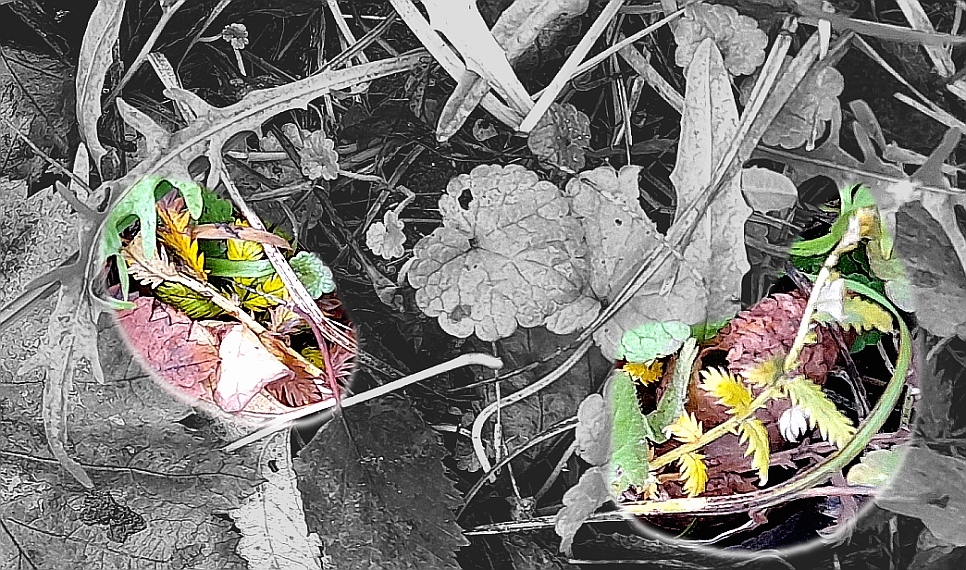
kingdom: Plantae
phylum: Tracheophyta
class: Magnoliopsida
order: Rosales
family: Rosaceae
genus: Argentina
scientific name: Argentina anserina
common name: Common silverweed
